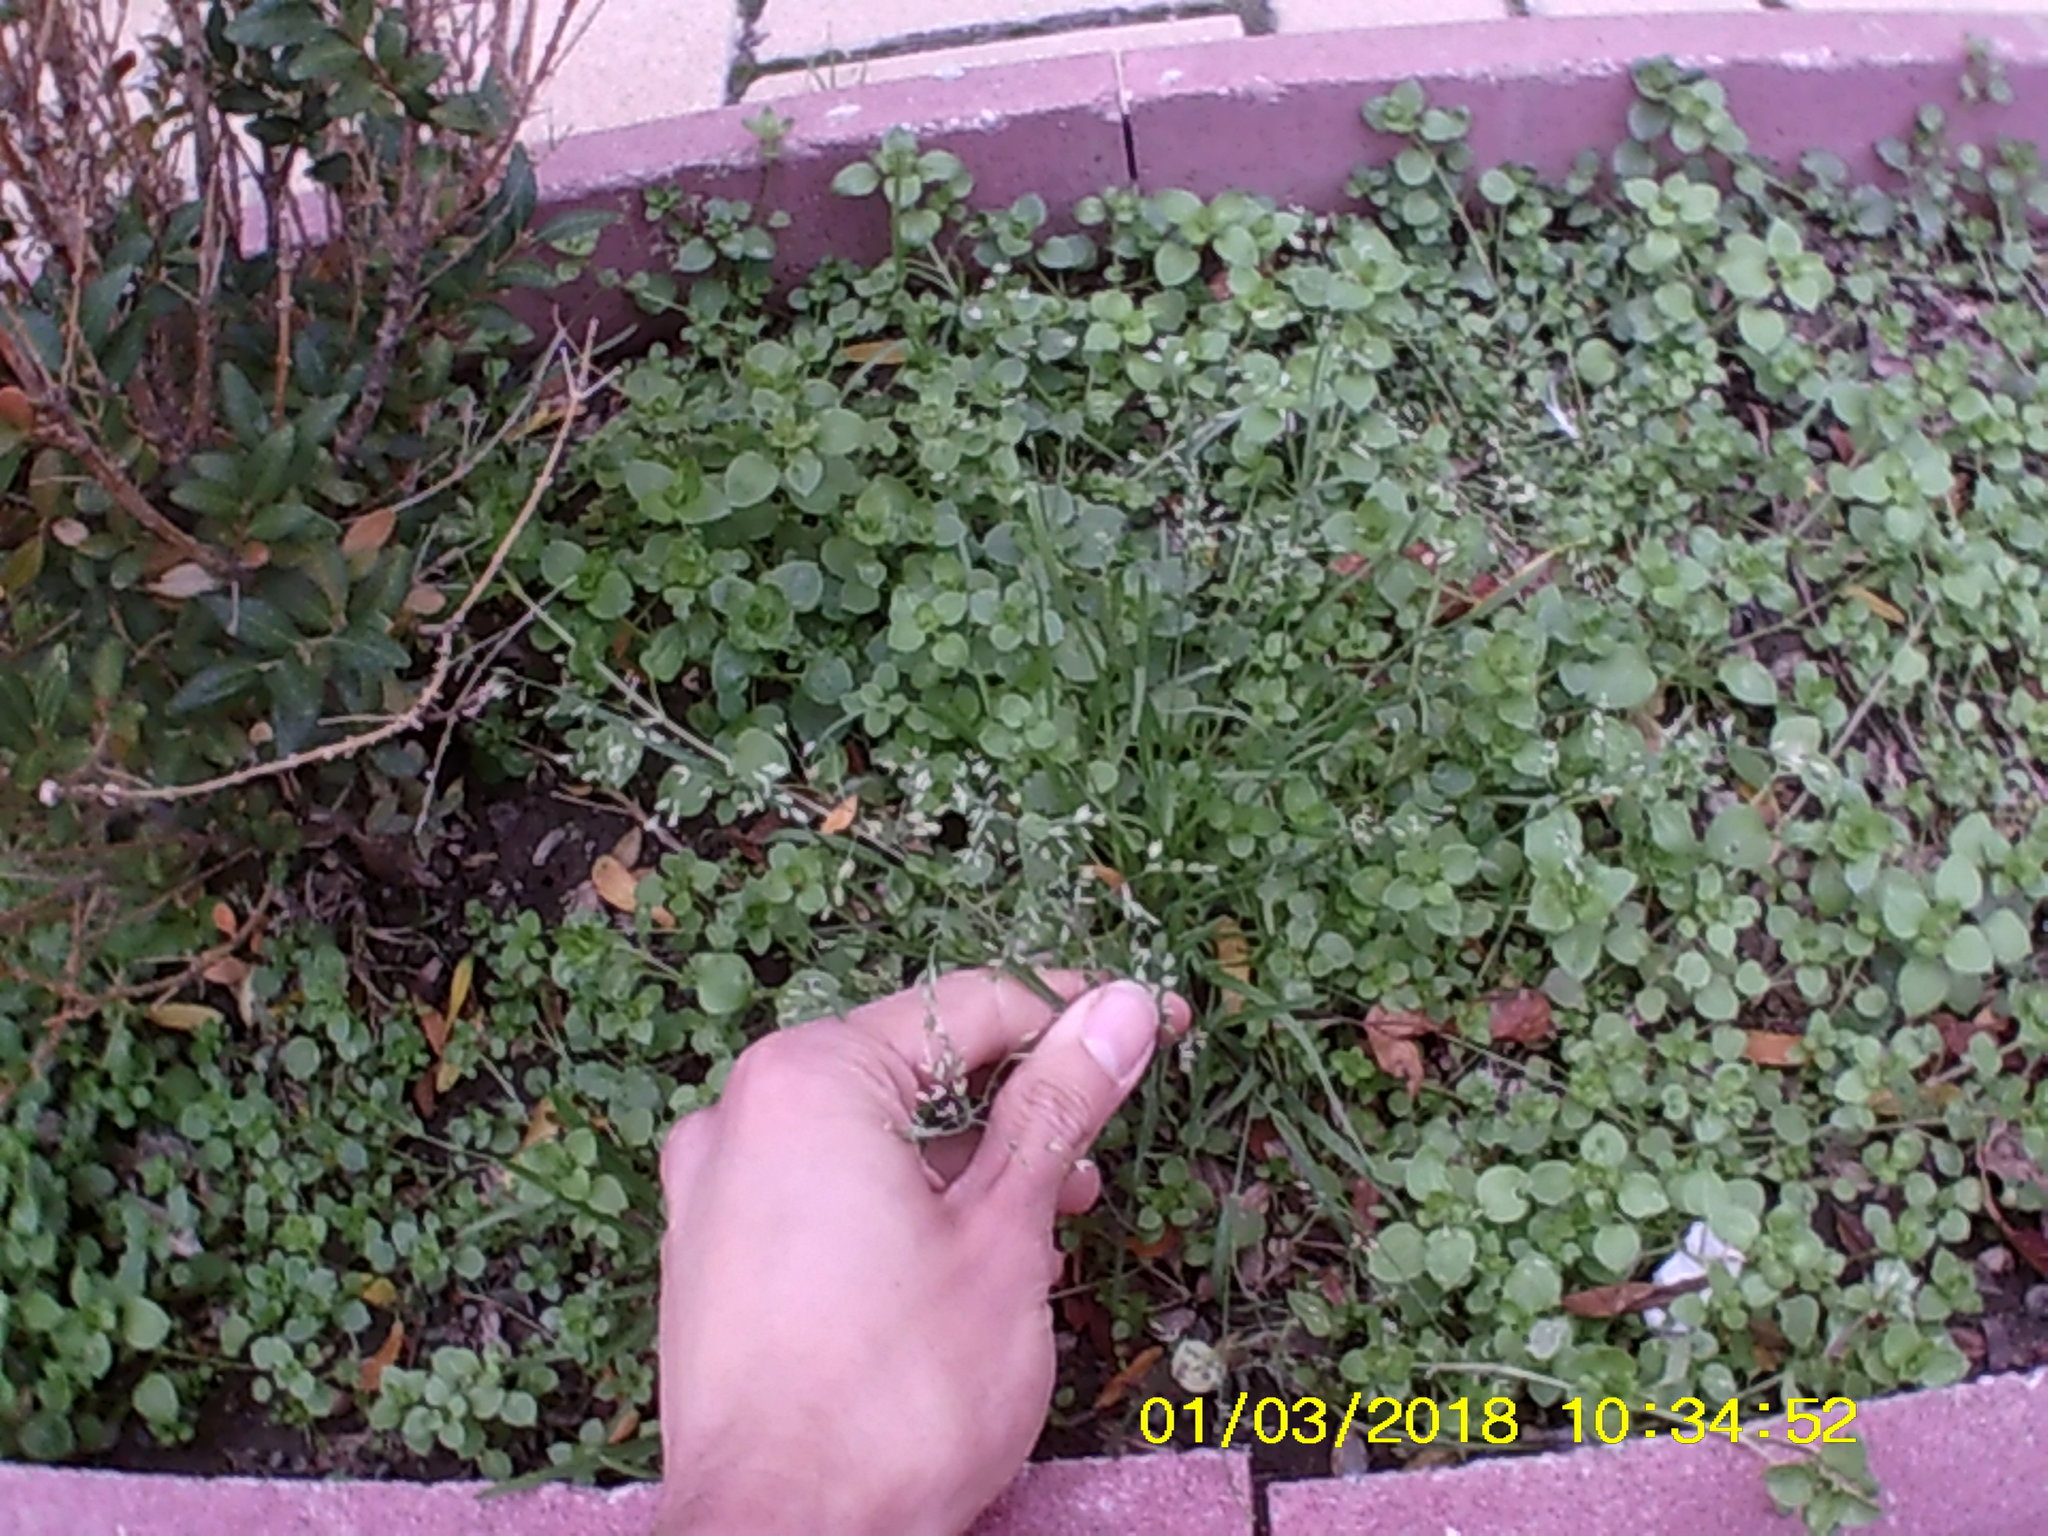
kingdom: Plantae
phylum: Tracheophyta
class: Liliopsida
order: Poales
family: Poaceae
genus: Poa
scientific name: Poa annua
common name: Annual bluegrass
